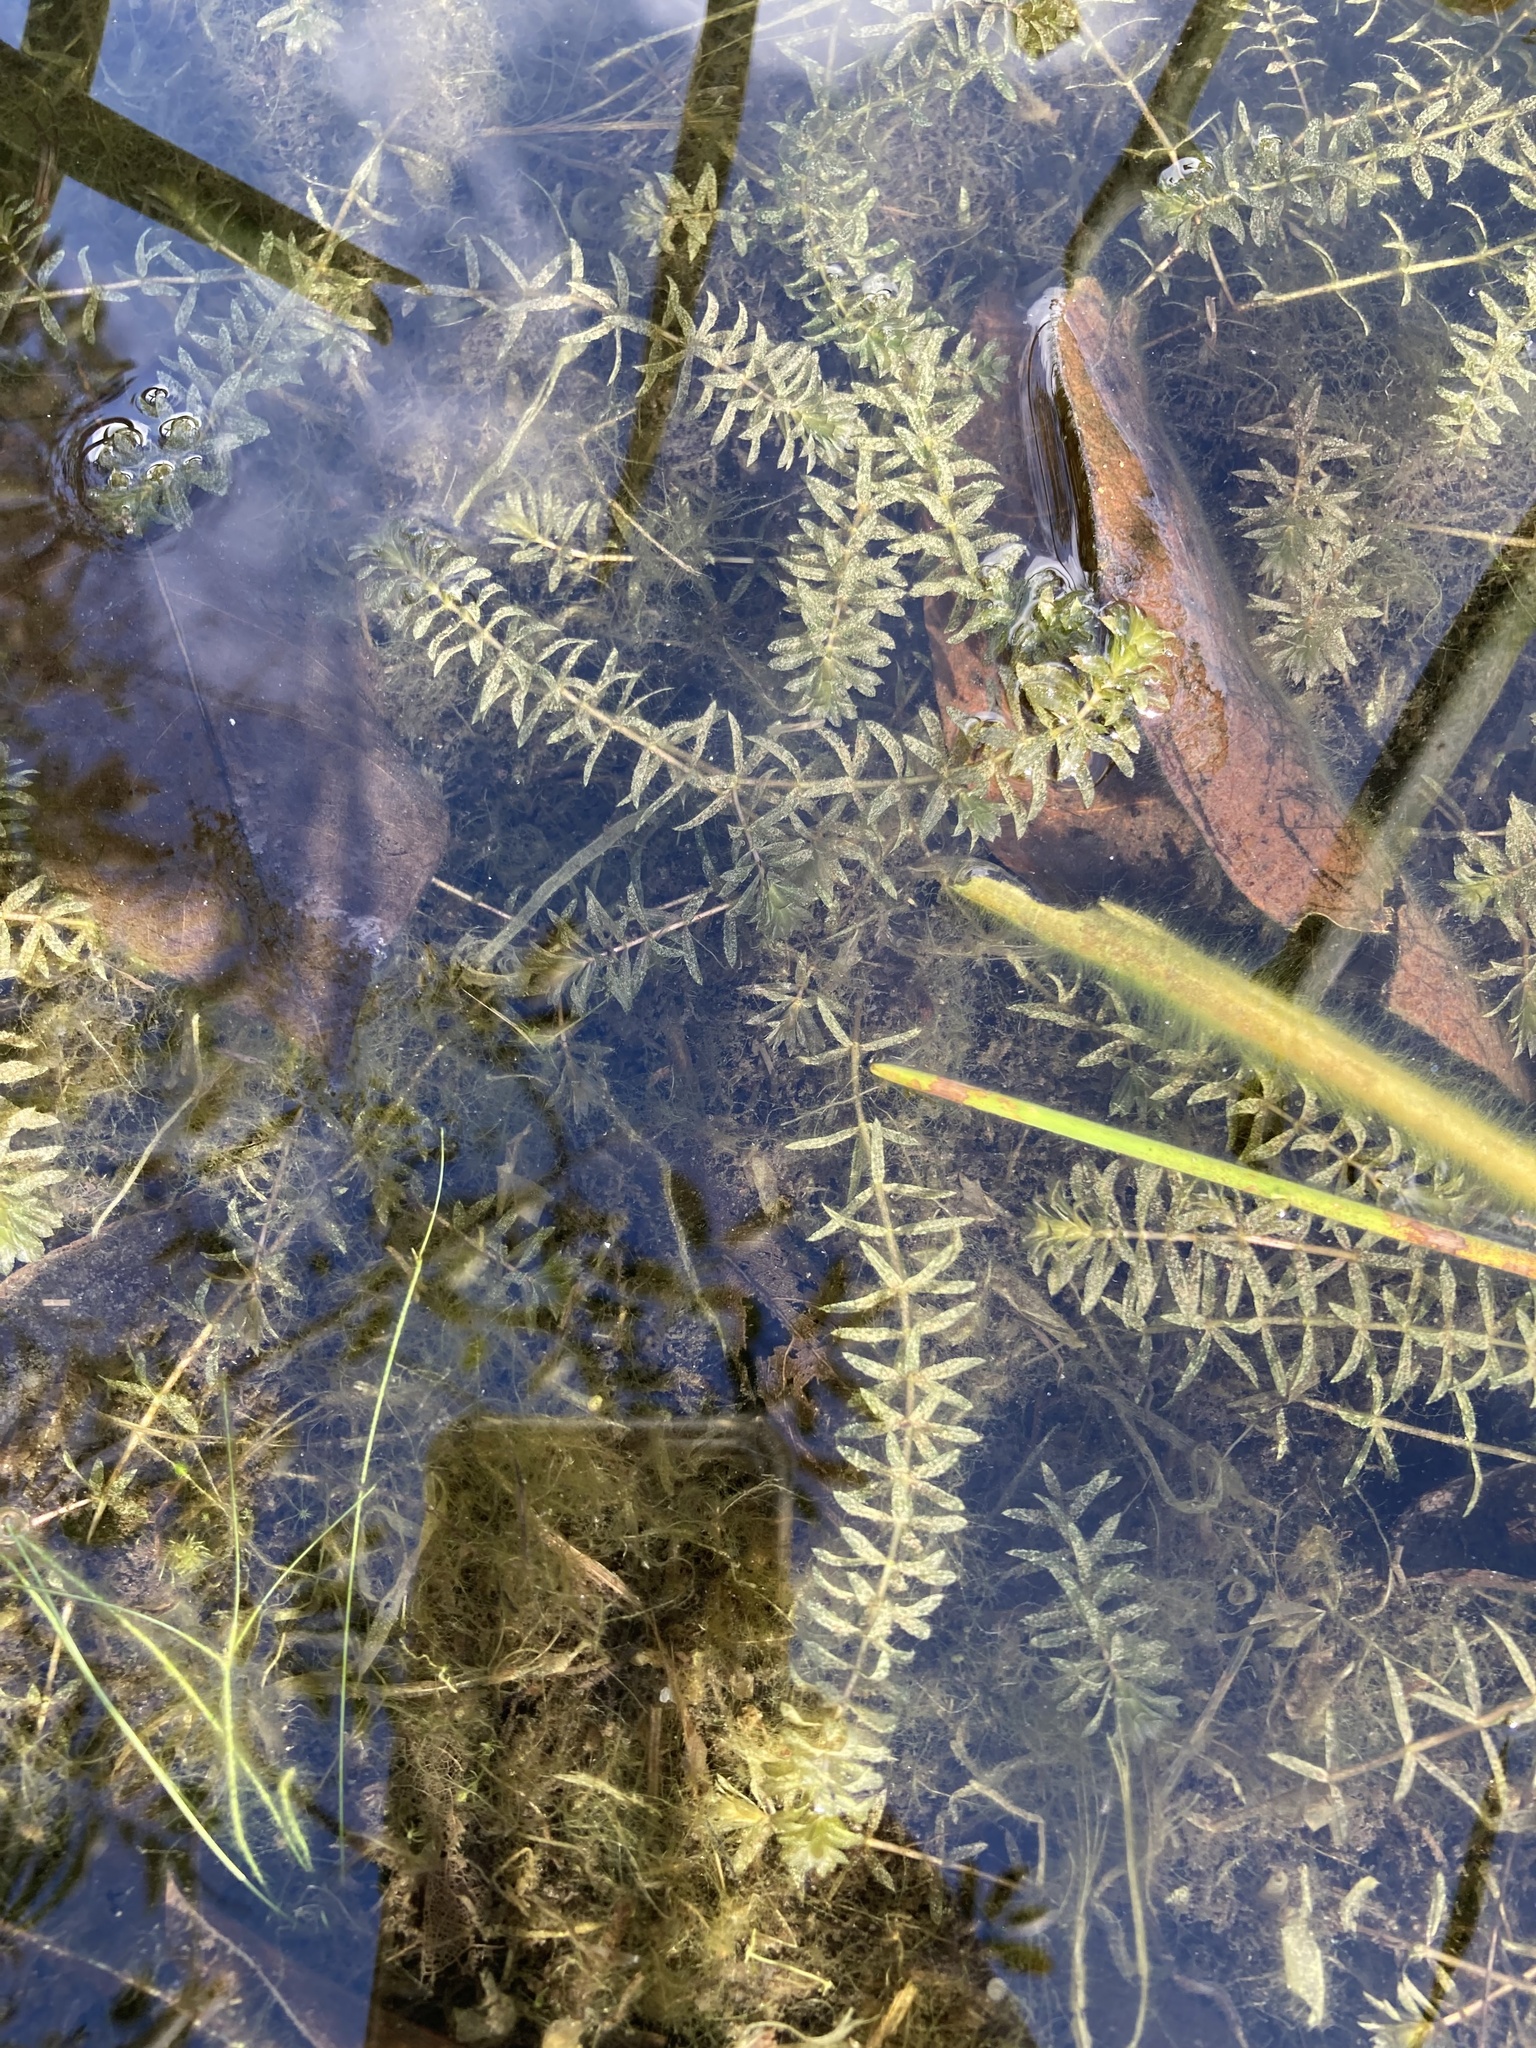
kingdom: Plantae
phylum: Tracheophyta
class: Liliopsida
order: Alismatales
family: Hydrocharitaceae
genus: Hydrilla
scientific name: Hydrilla verticillata
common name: Florida-elodea
